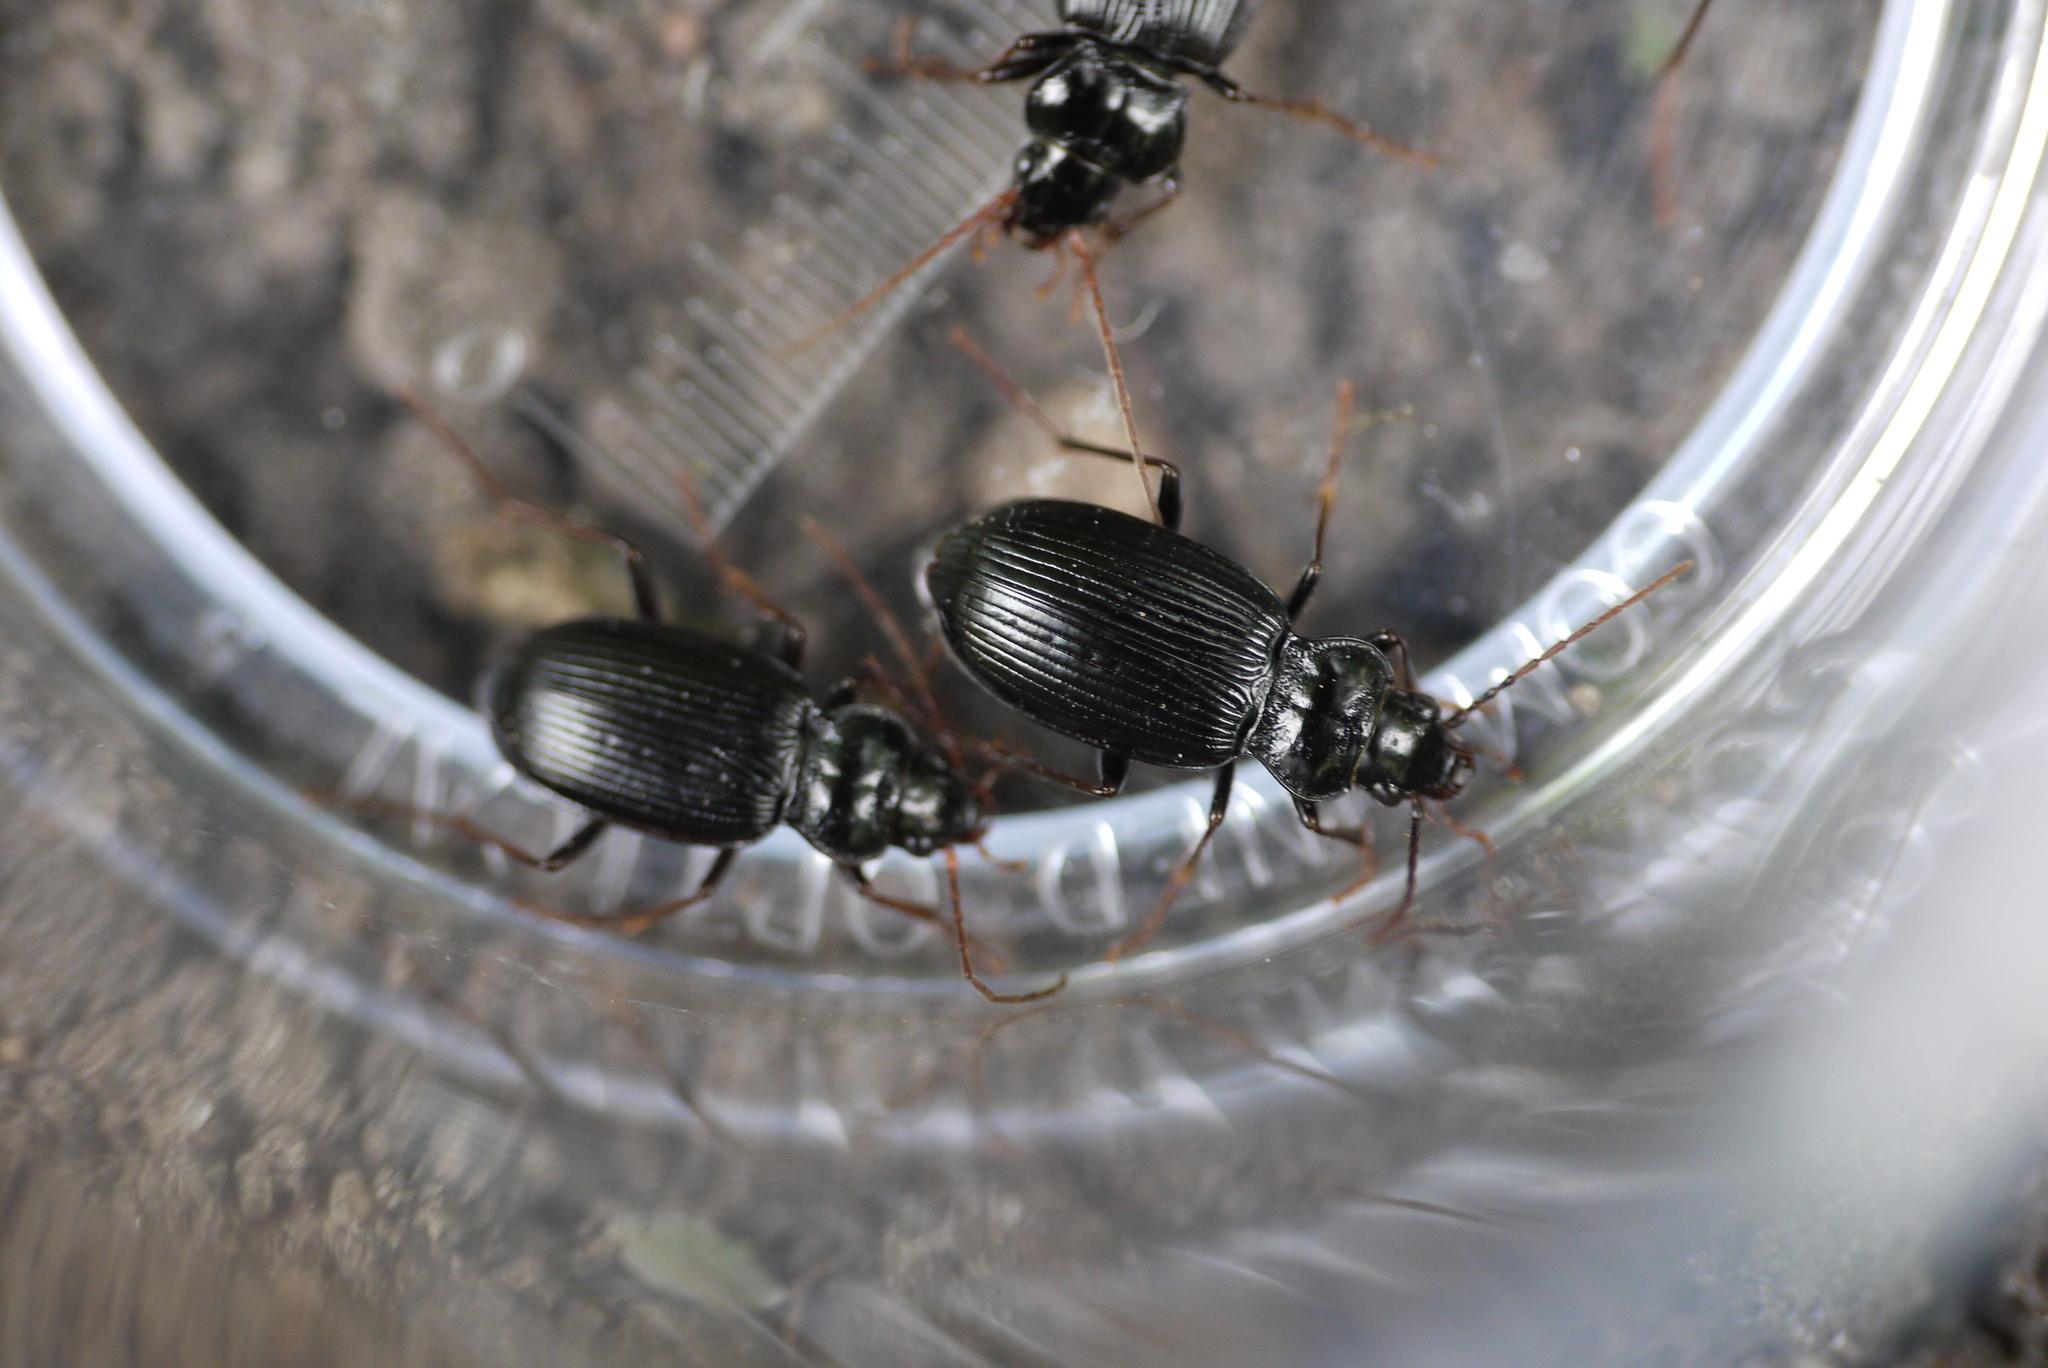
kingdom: Animalia
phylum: Arthropoda
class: Insecta
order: Coleoptera
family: Carabidae
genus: Nebria
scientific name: Nebria brevicollis
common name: Short-necked gazelle beetle
